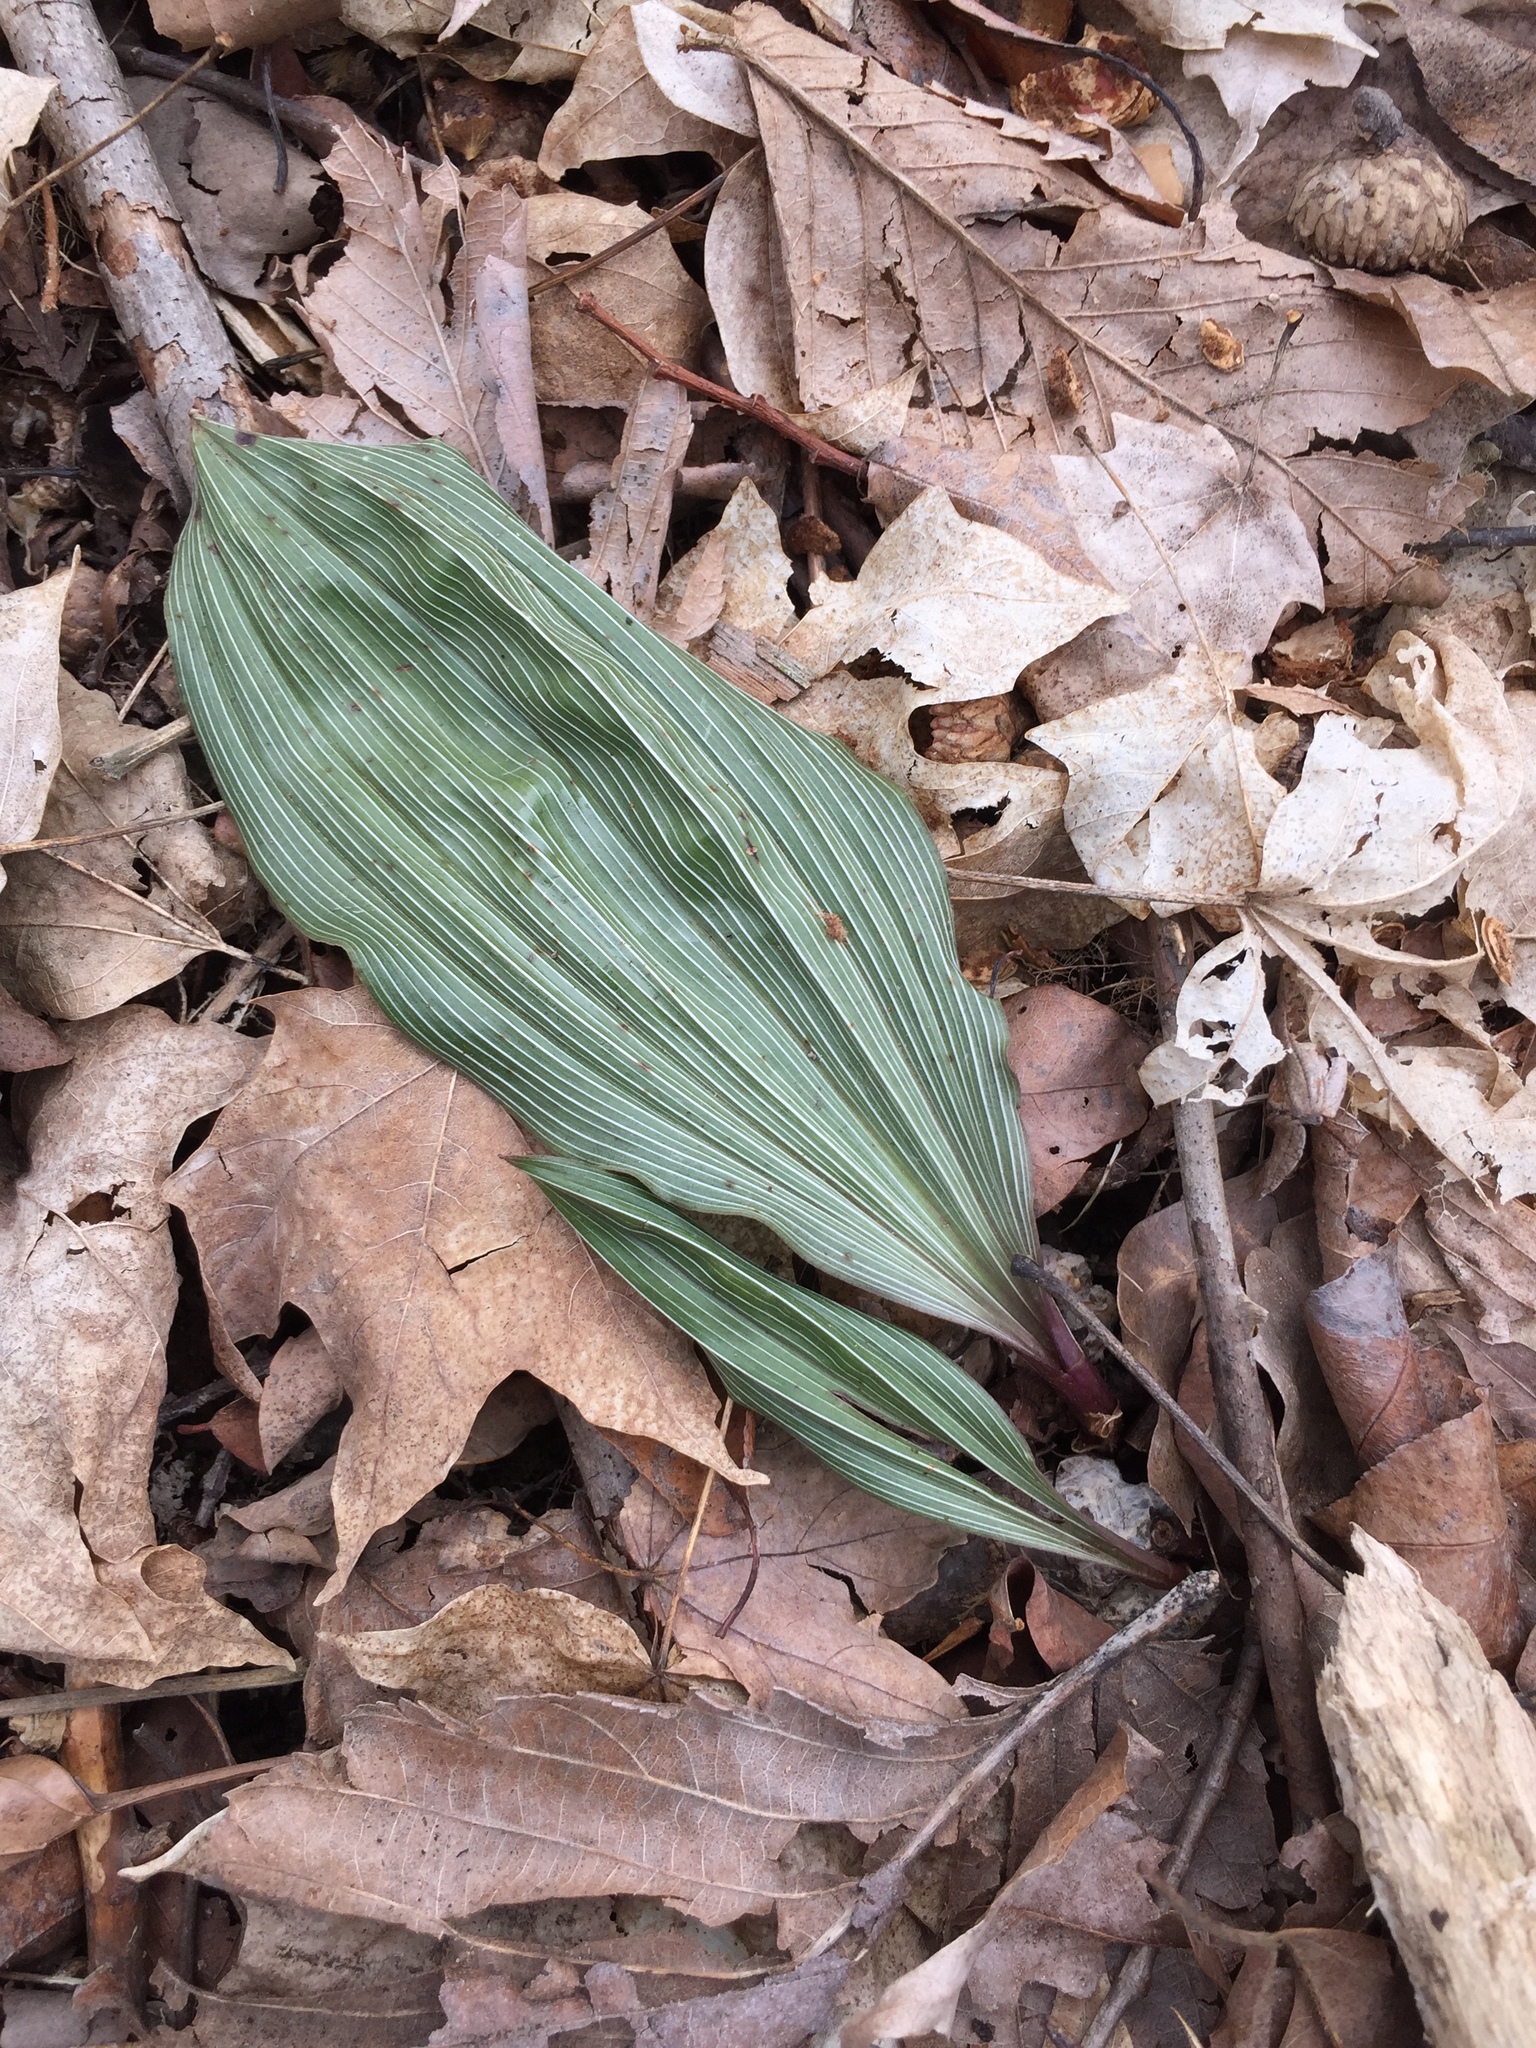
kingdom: Plantae
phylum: Tracheophyta
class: Liliopsida
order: Asparagales
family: Orchidaceae
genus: Aplectrum
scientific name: Aplectrum hyemale
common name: Adam-and-eve
